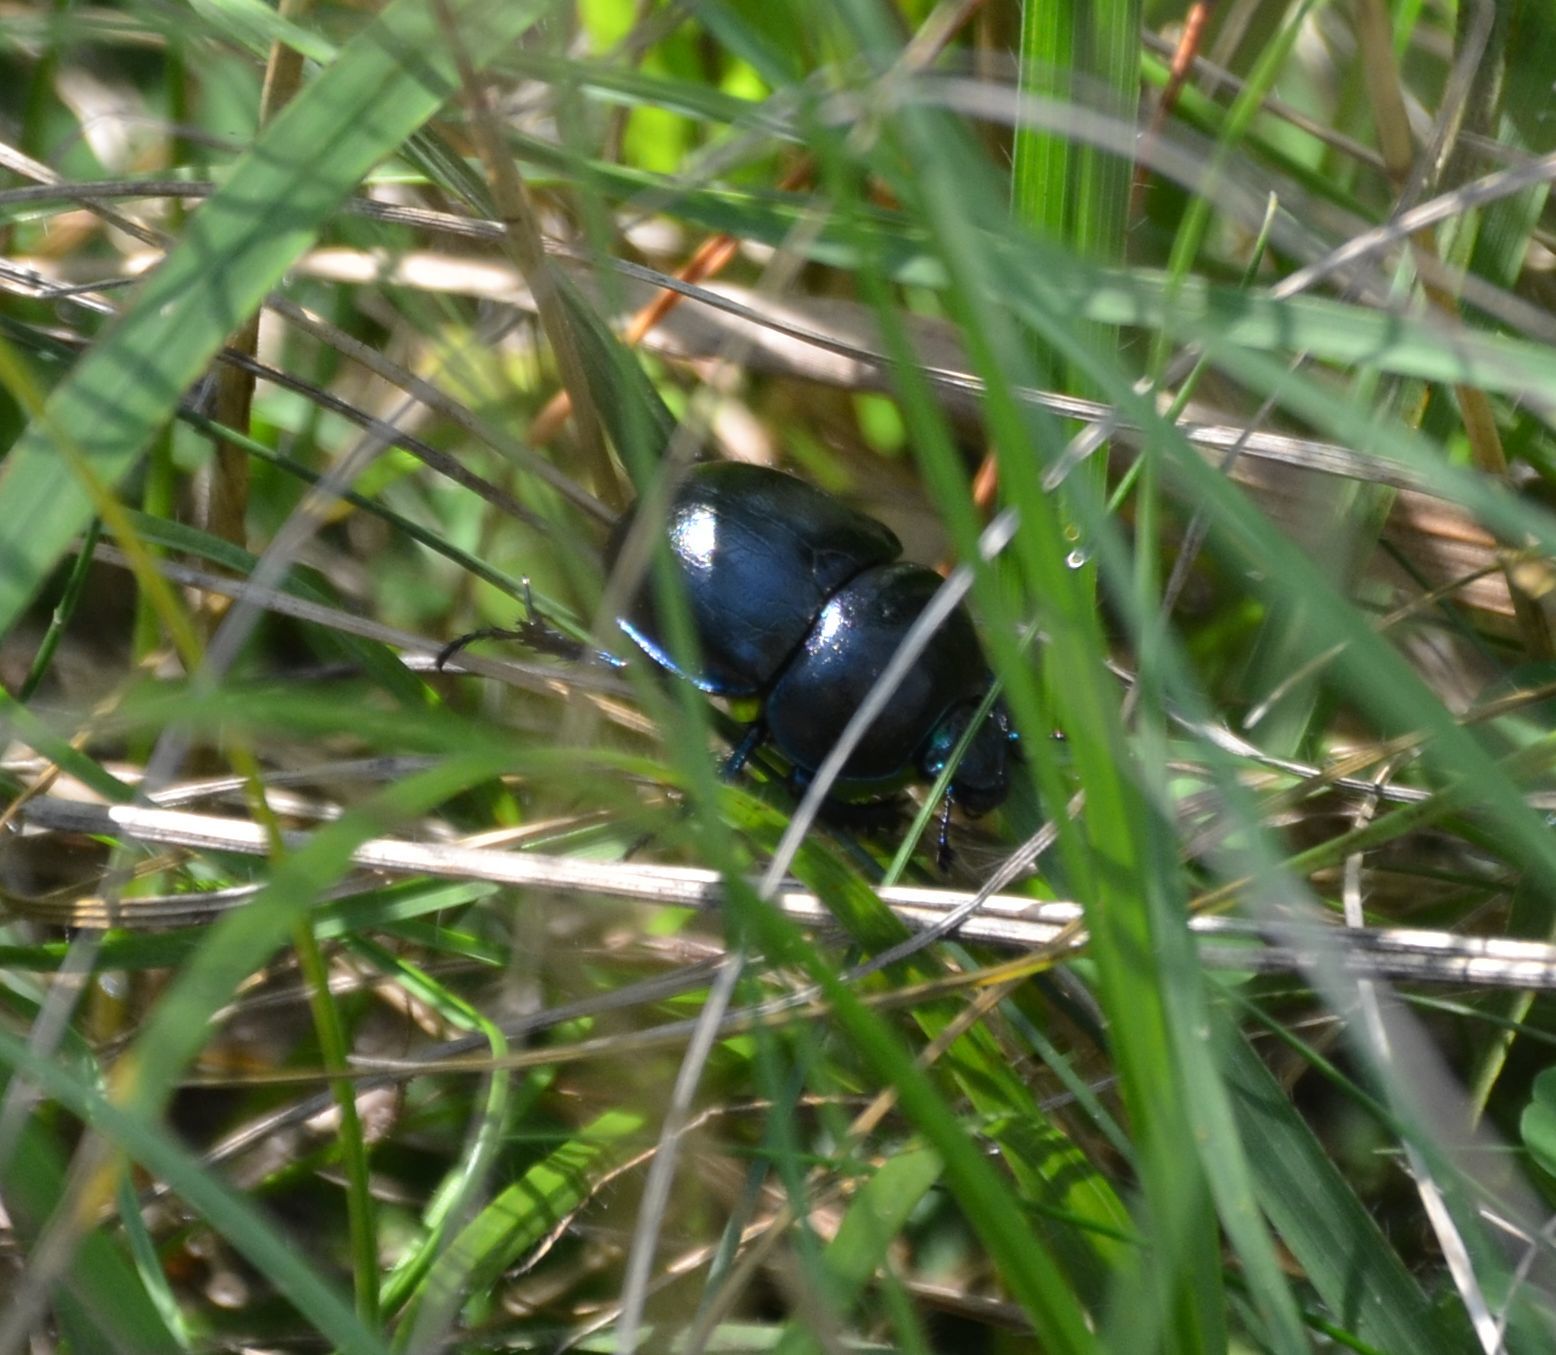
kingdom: Animalia
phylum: Arthropoda
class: Insecta
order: Coleoptera
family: Geotrupidae
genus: Trypocopris
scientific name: Trypocopris vernalis
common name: Spring dumbledor
